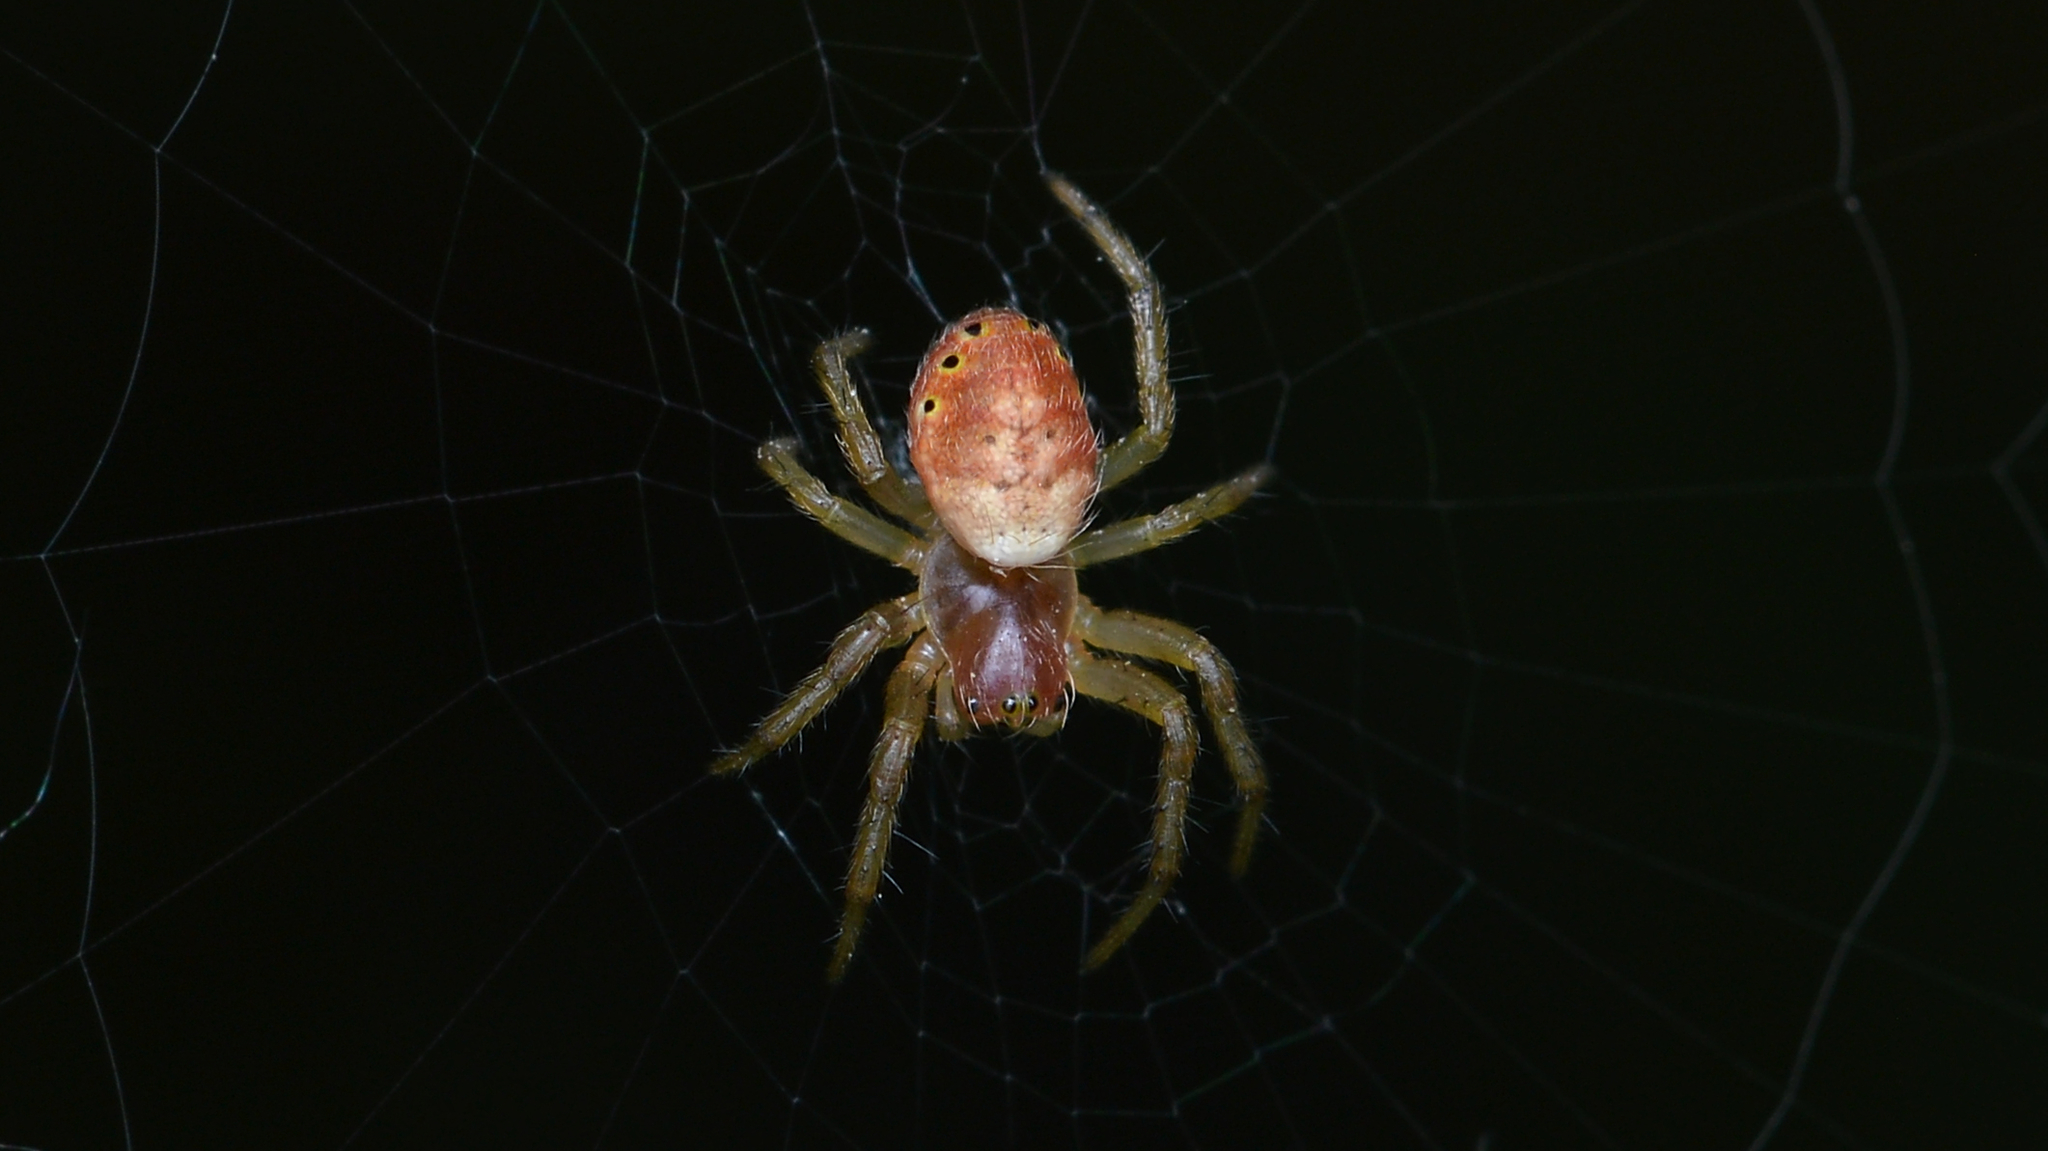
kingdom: Animalia
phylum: Arthropoda
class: Arachnida
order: Araneae
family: Araneidae
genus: Araniella
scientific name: Araniella displicata
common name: Sixspotted orb weaver
